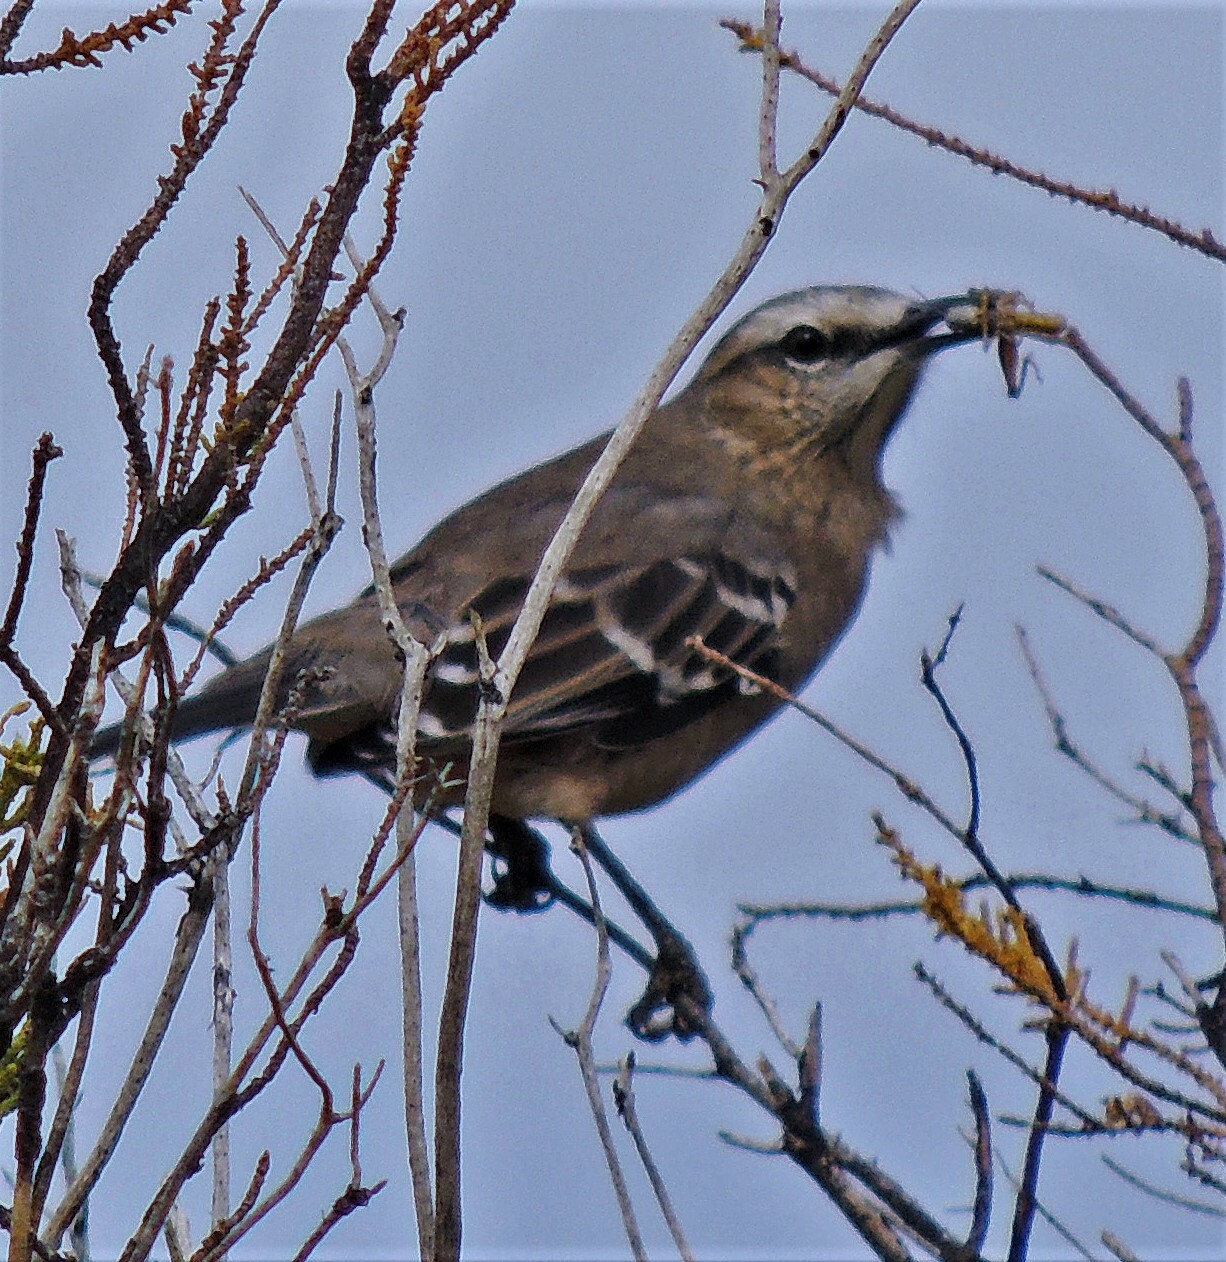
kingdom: Animalia
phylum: Chordata
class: Aves
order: Passeriformes
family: Mimidae
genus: Mimus
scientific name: Mimus patagonicus
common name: Patagonian mockingbird
